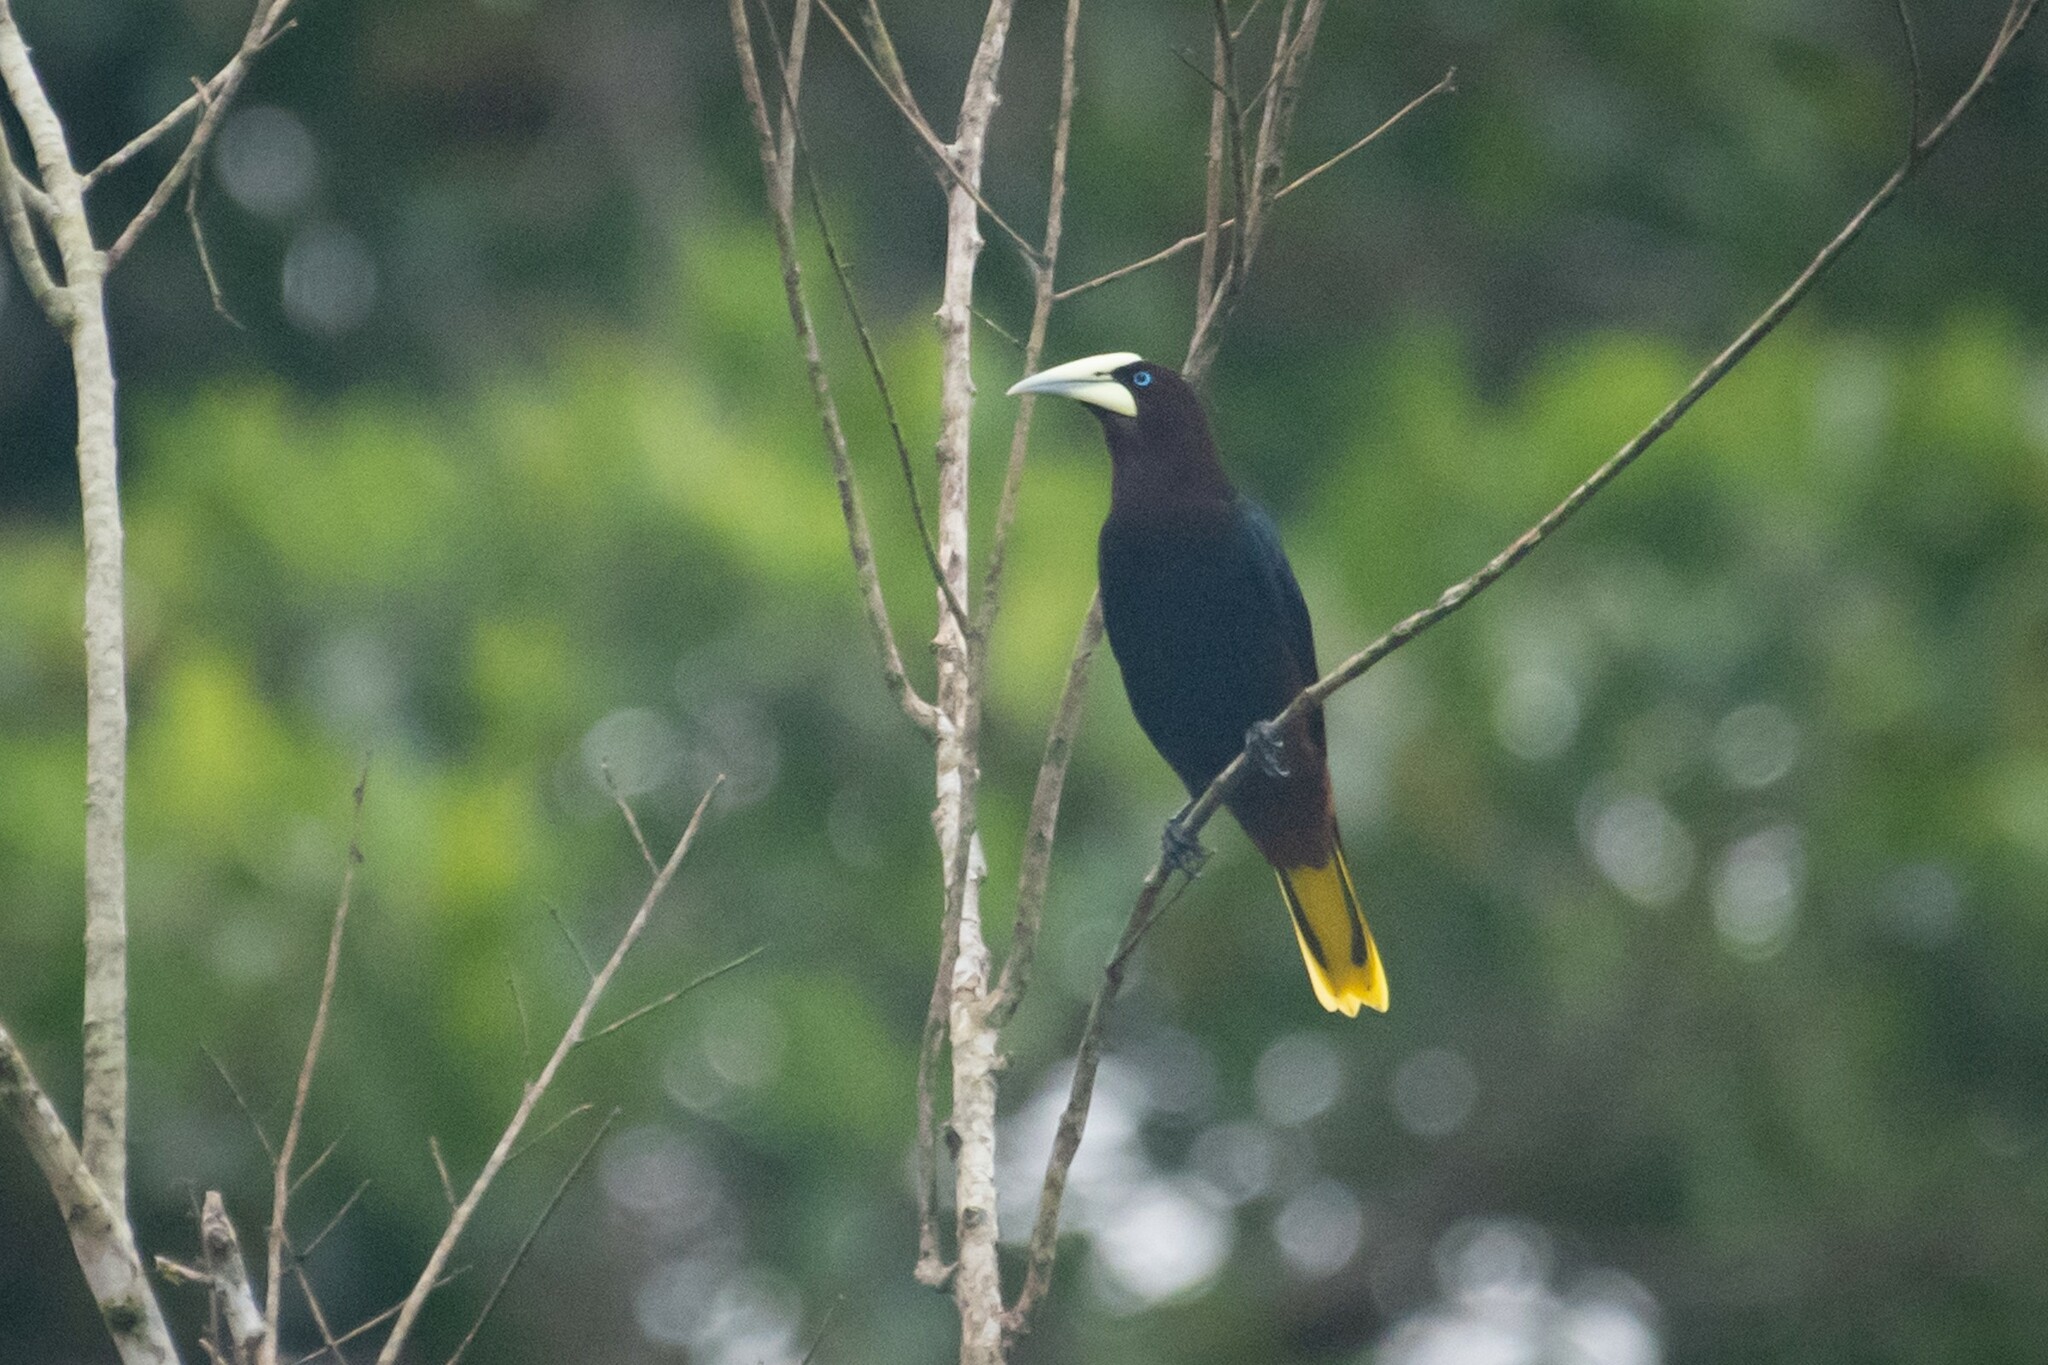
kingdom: Animalia
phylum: Chordata
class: Aves
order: Passeriformes
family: Icteridae
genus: Psarocolius
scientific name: Psarocolius wagleri
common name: Chestnut-headed oropendola
